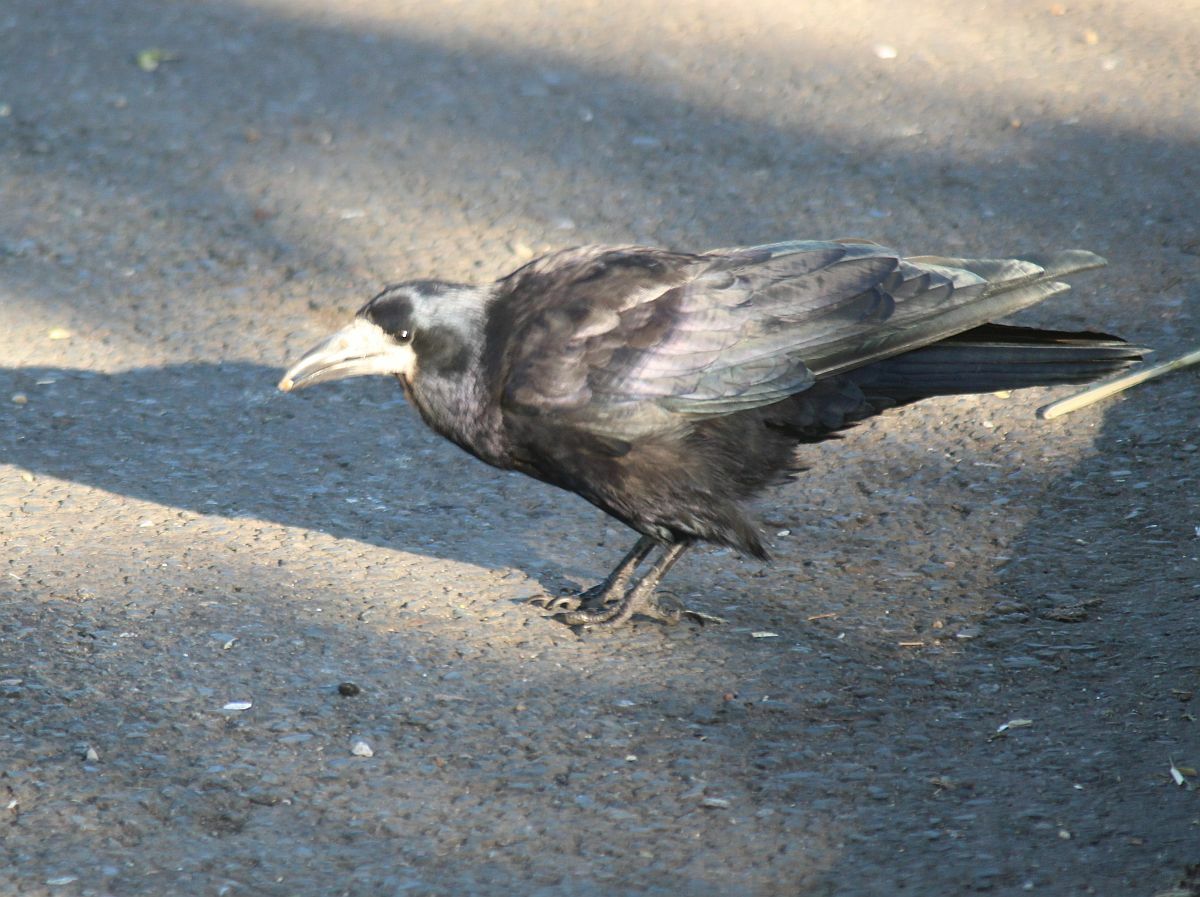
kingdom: Animalia
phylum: Chordata
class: Aves
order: Passeriformes
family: Corvidae
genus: Corvus
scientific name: Corvus frugilegus
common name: Rook
